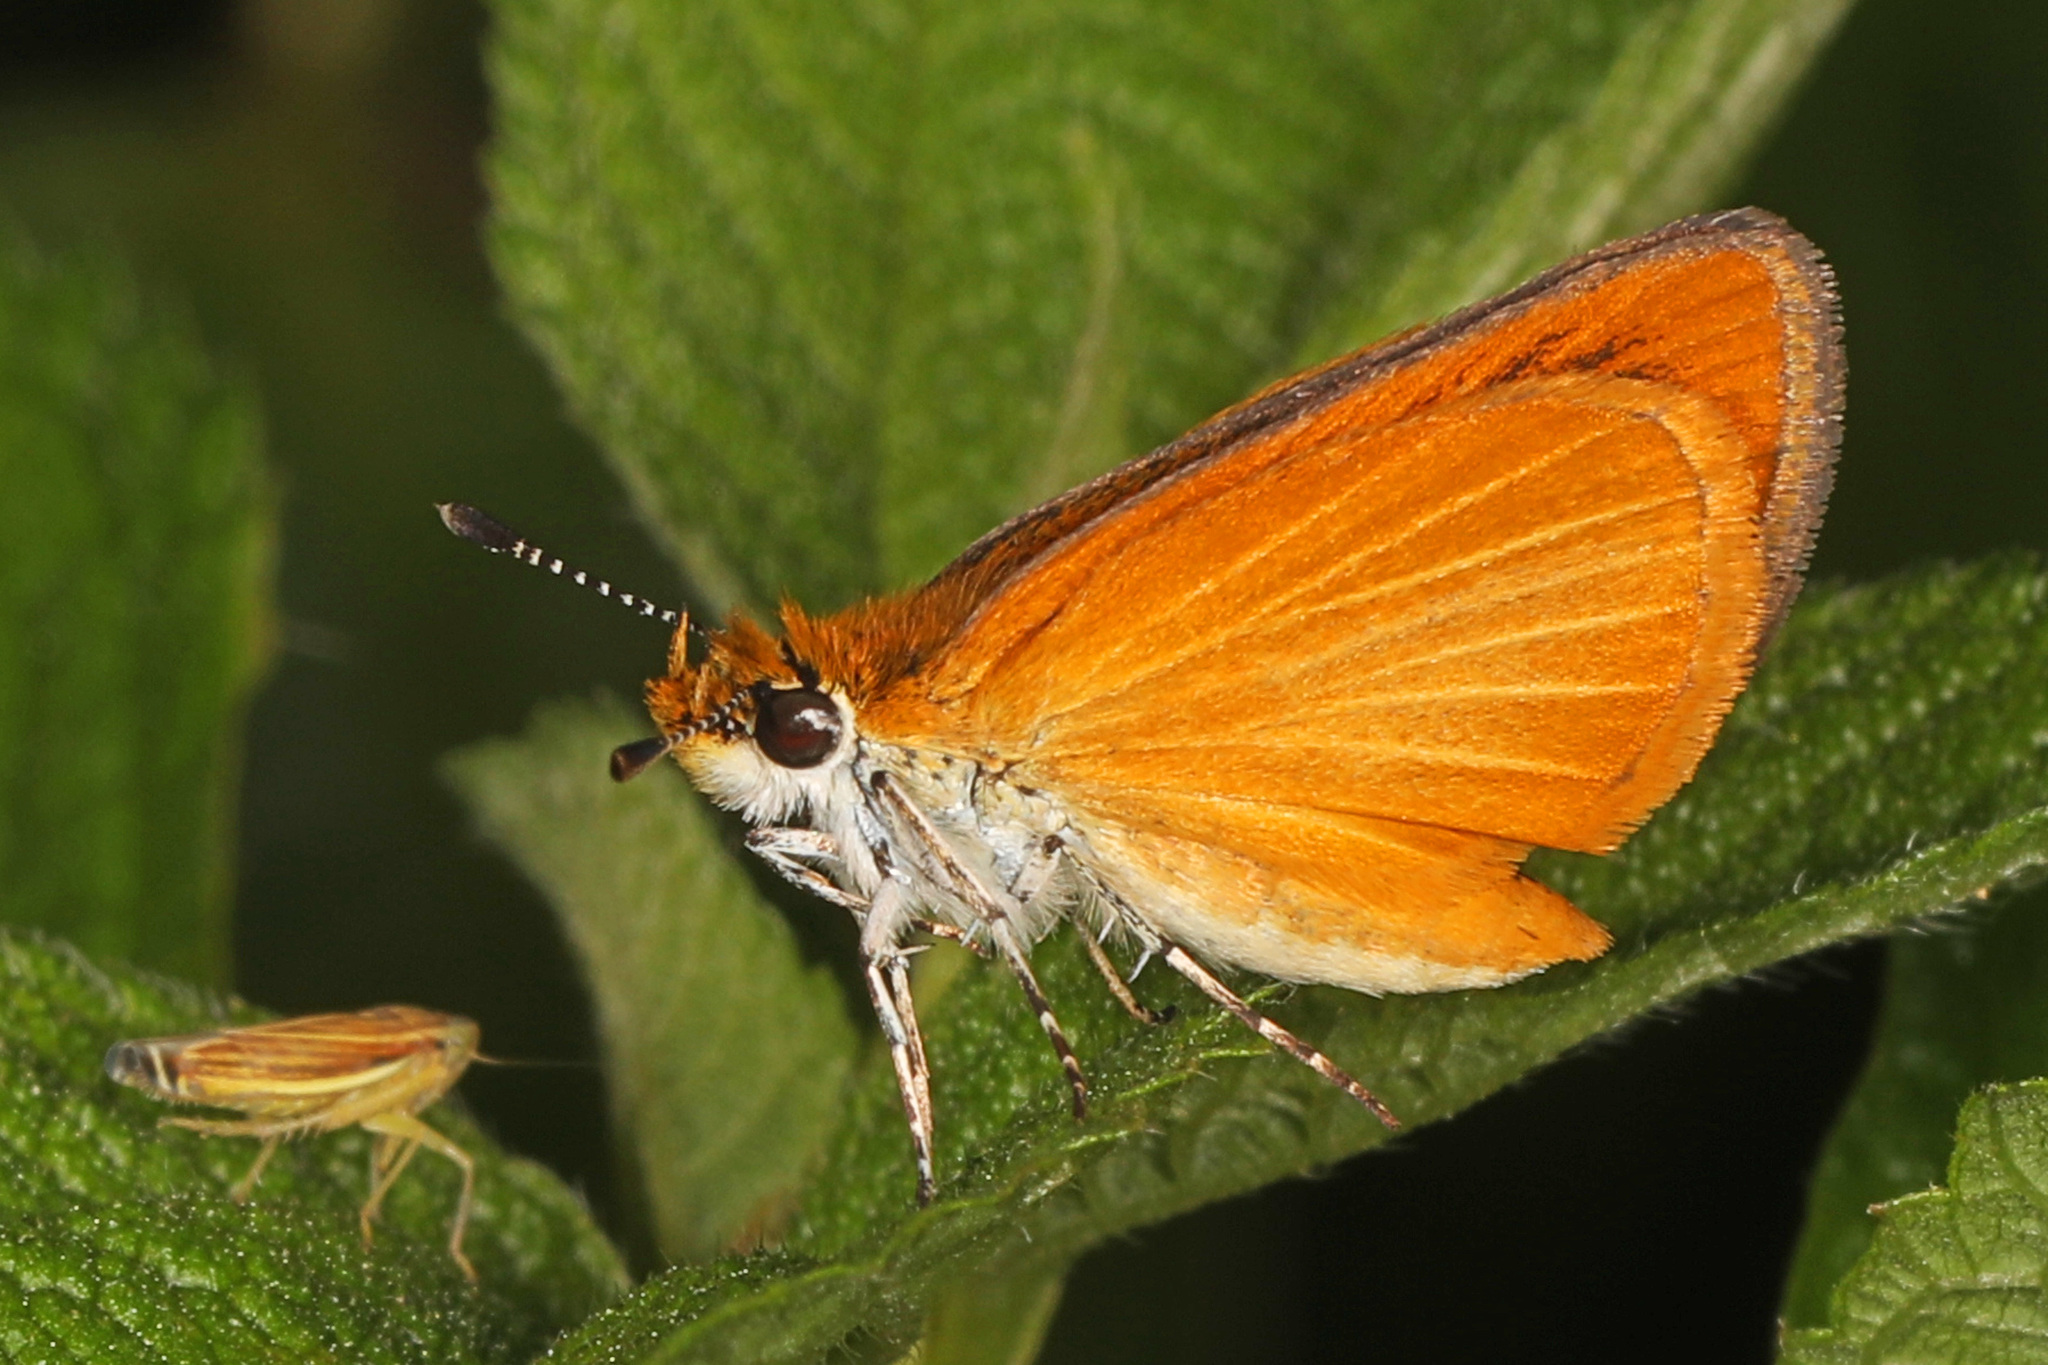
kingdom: Animalia
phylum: Arthropoda
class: Insecta
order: Lepidoptera
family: Hesperiidae
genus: Ancyloxypha
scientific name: Ancyloxypha numitor
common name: Least skipper
